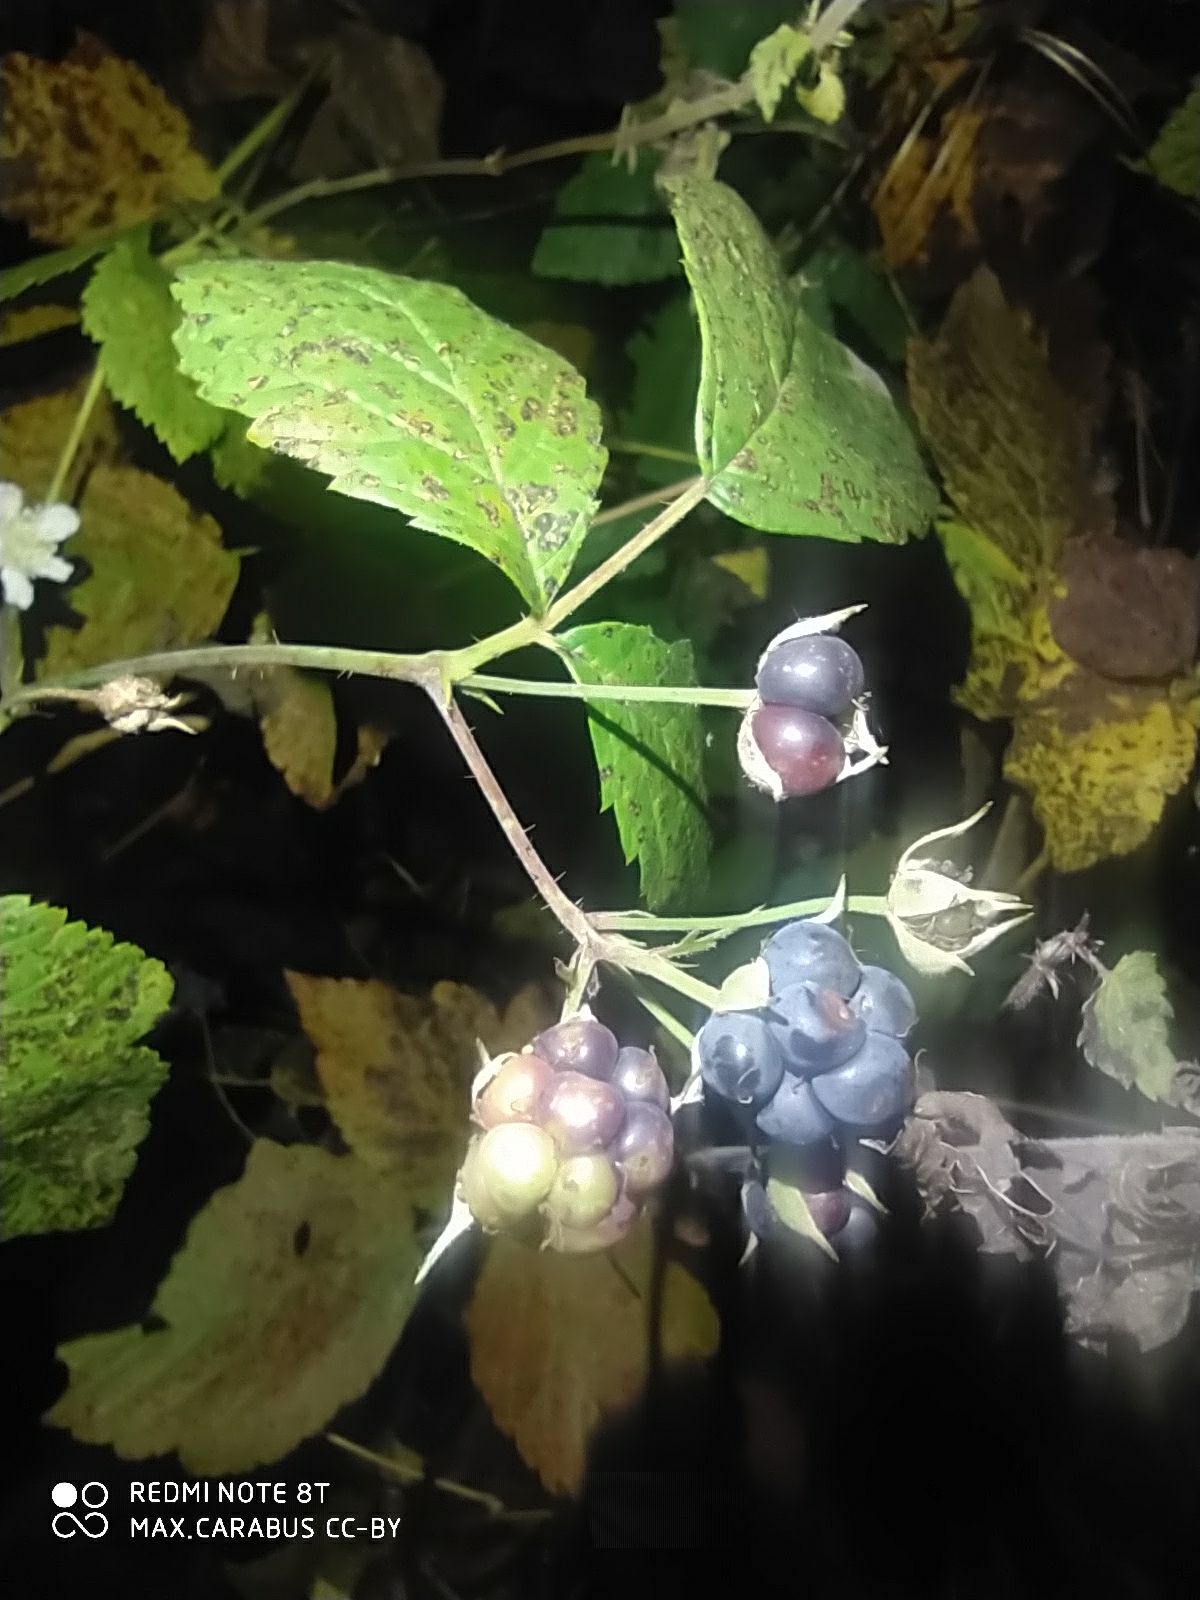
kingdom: Plantae
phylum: Tracheophyta
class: Magnoliopsida
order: Rosales
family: Rosaceae
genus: Rubus
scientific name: Rubus caesius
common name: Dewberry
